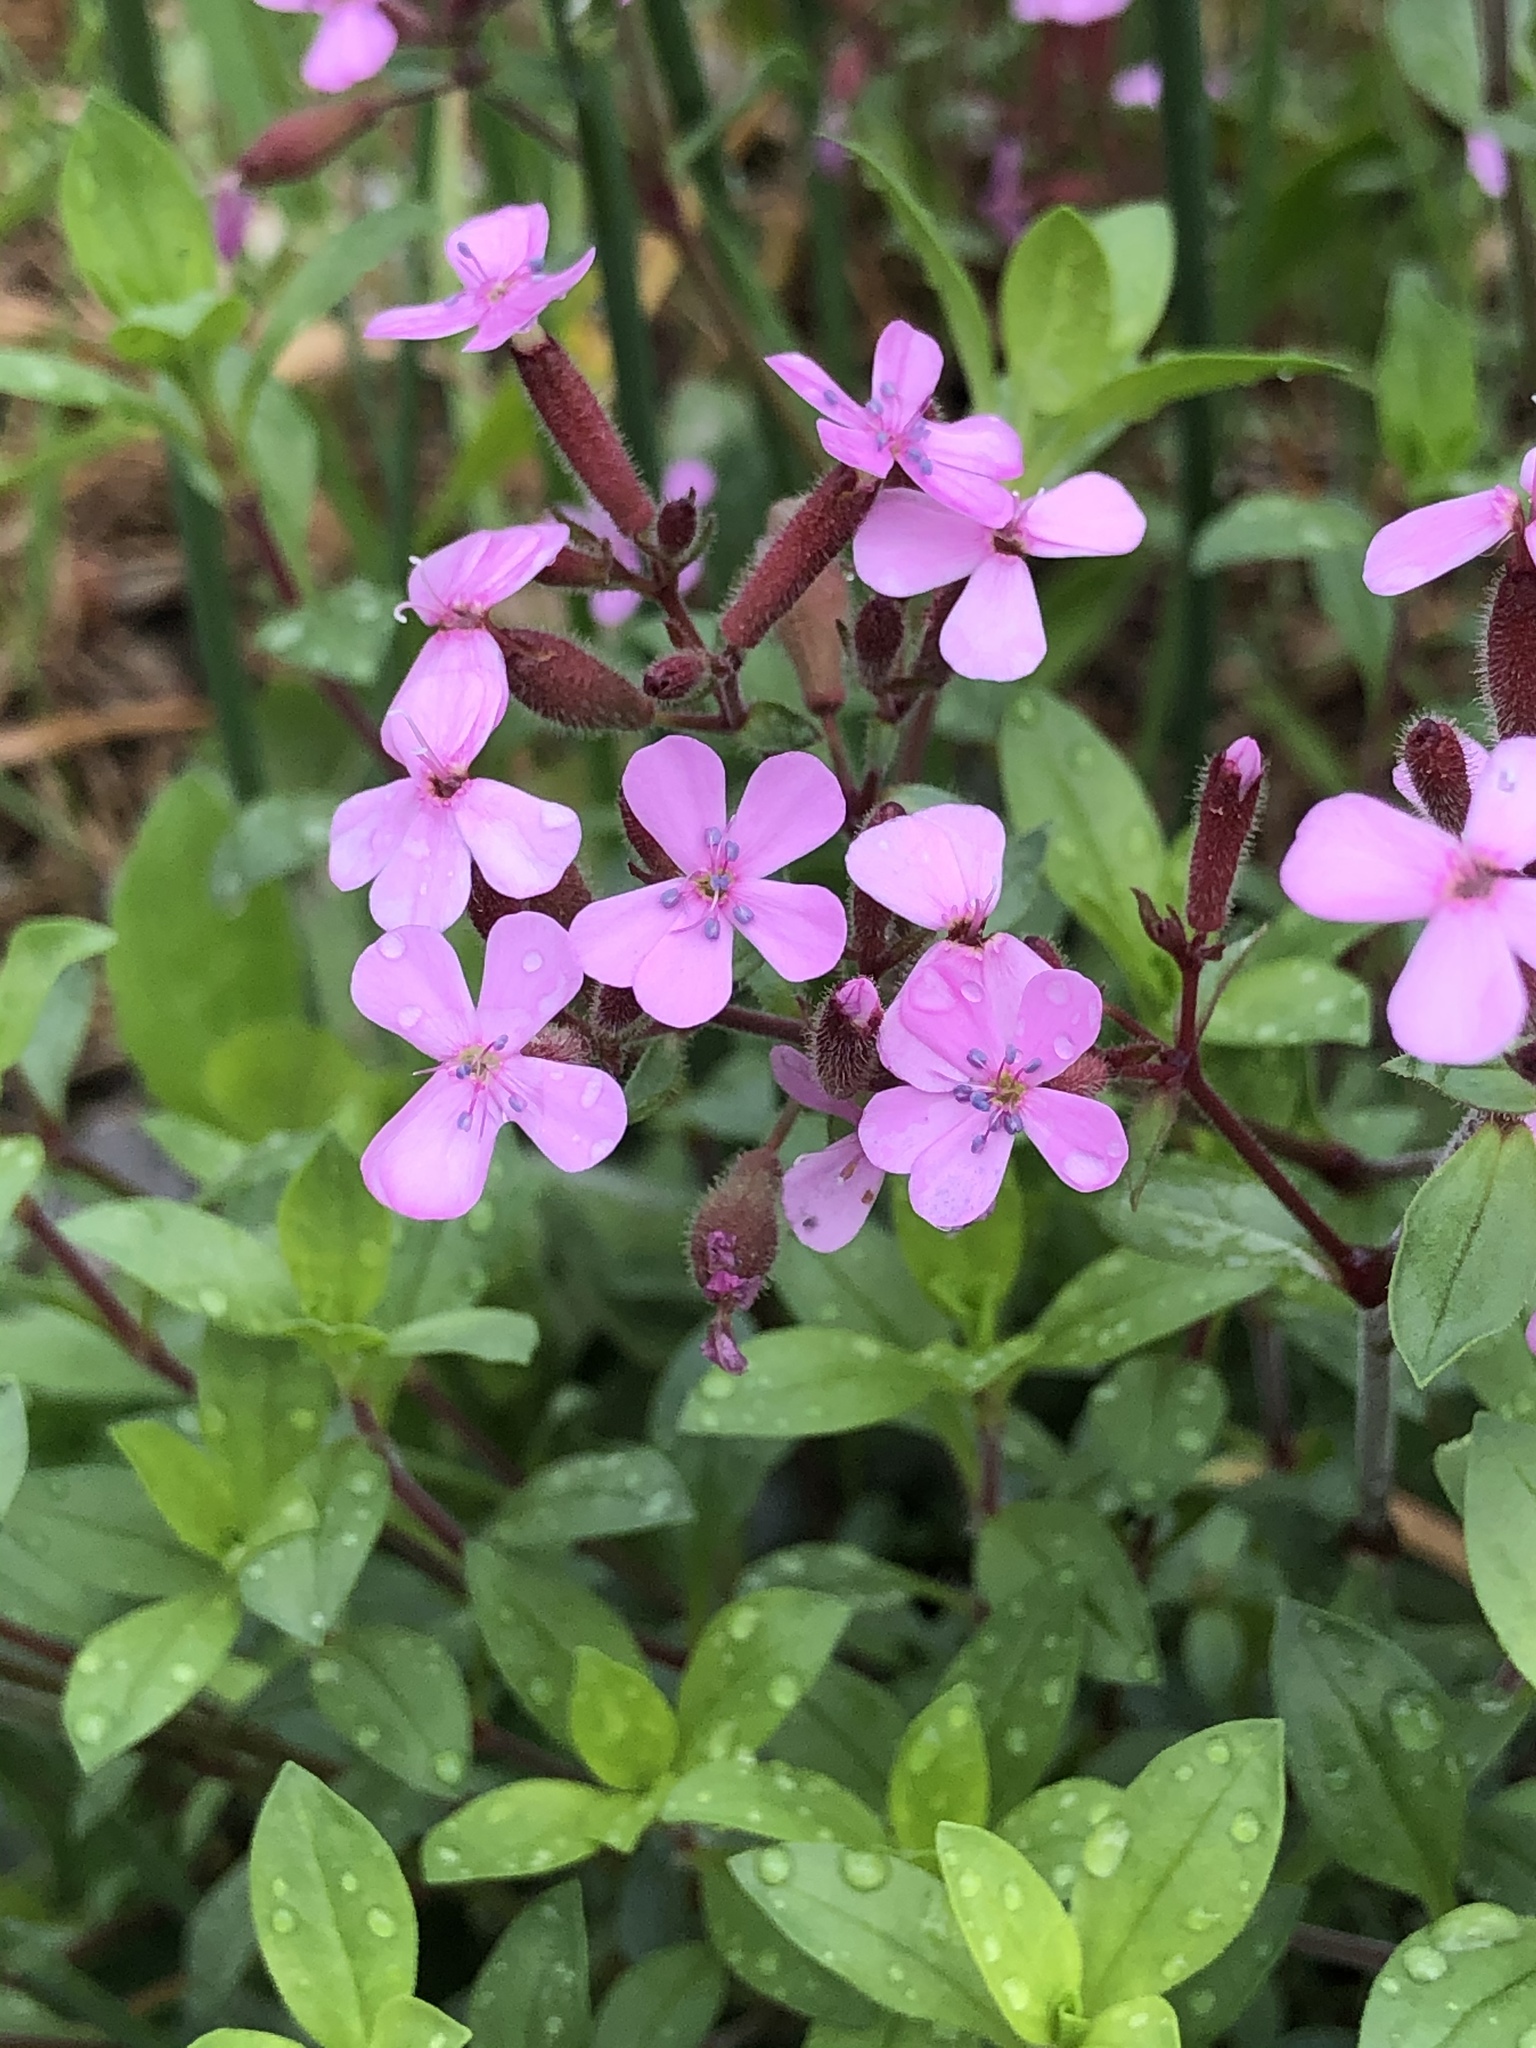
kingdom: Plantae
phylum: Tracheophyta
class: Magnoliopsida
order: Caryophyllales
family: Caryophyllaceae
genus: Saponaria
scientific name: Saponaria ocymoides
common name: Rock soapwort
